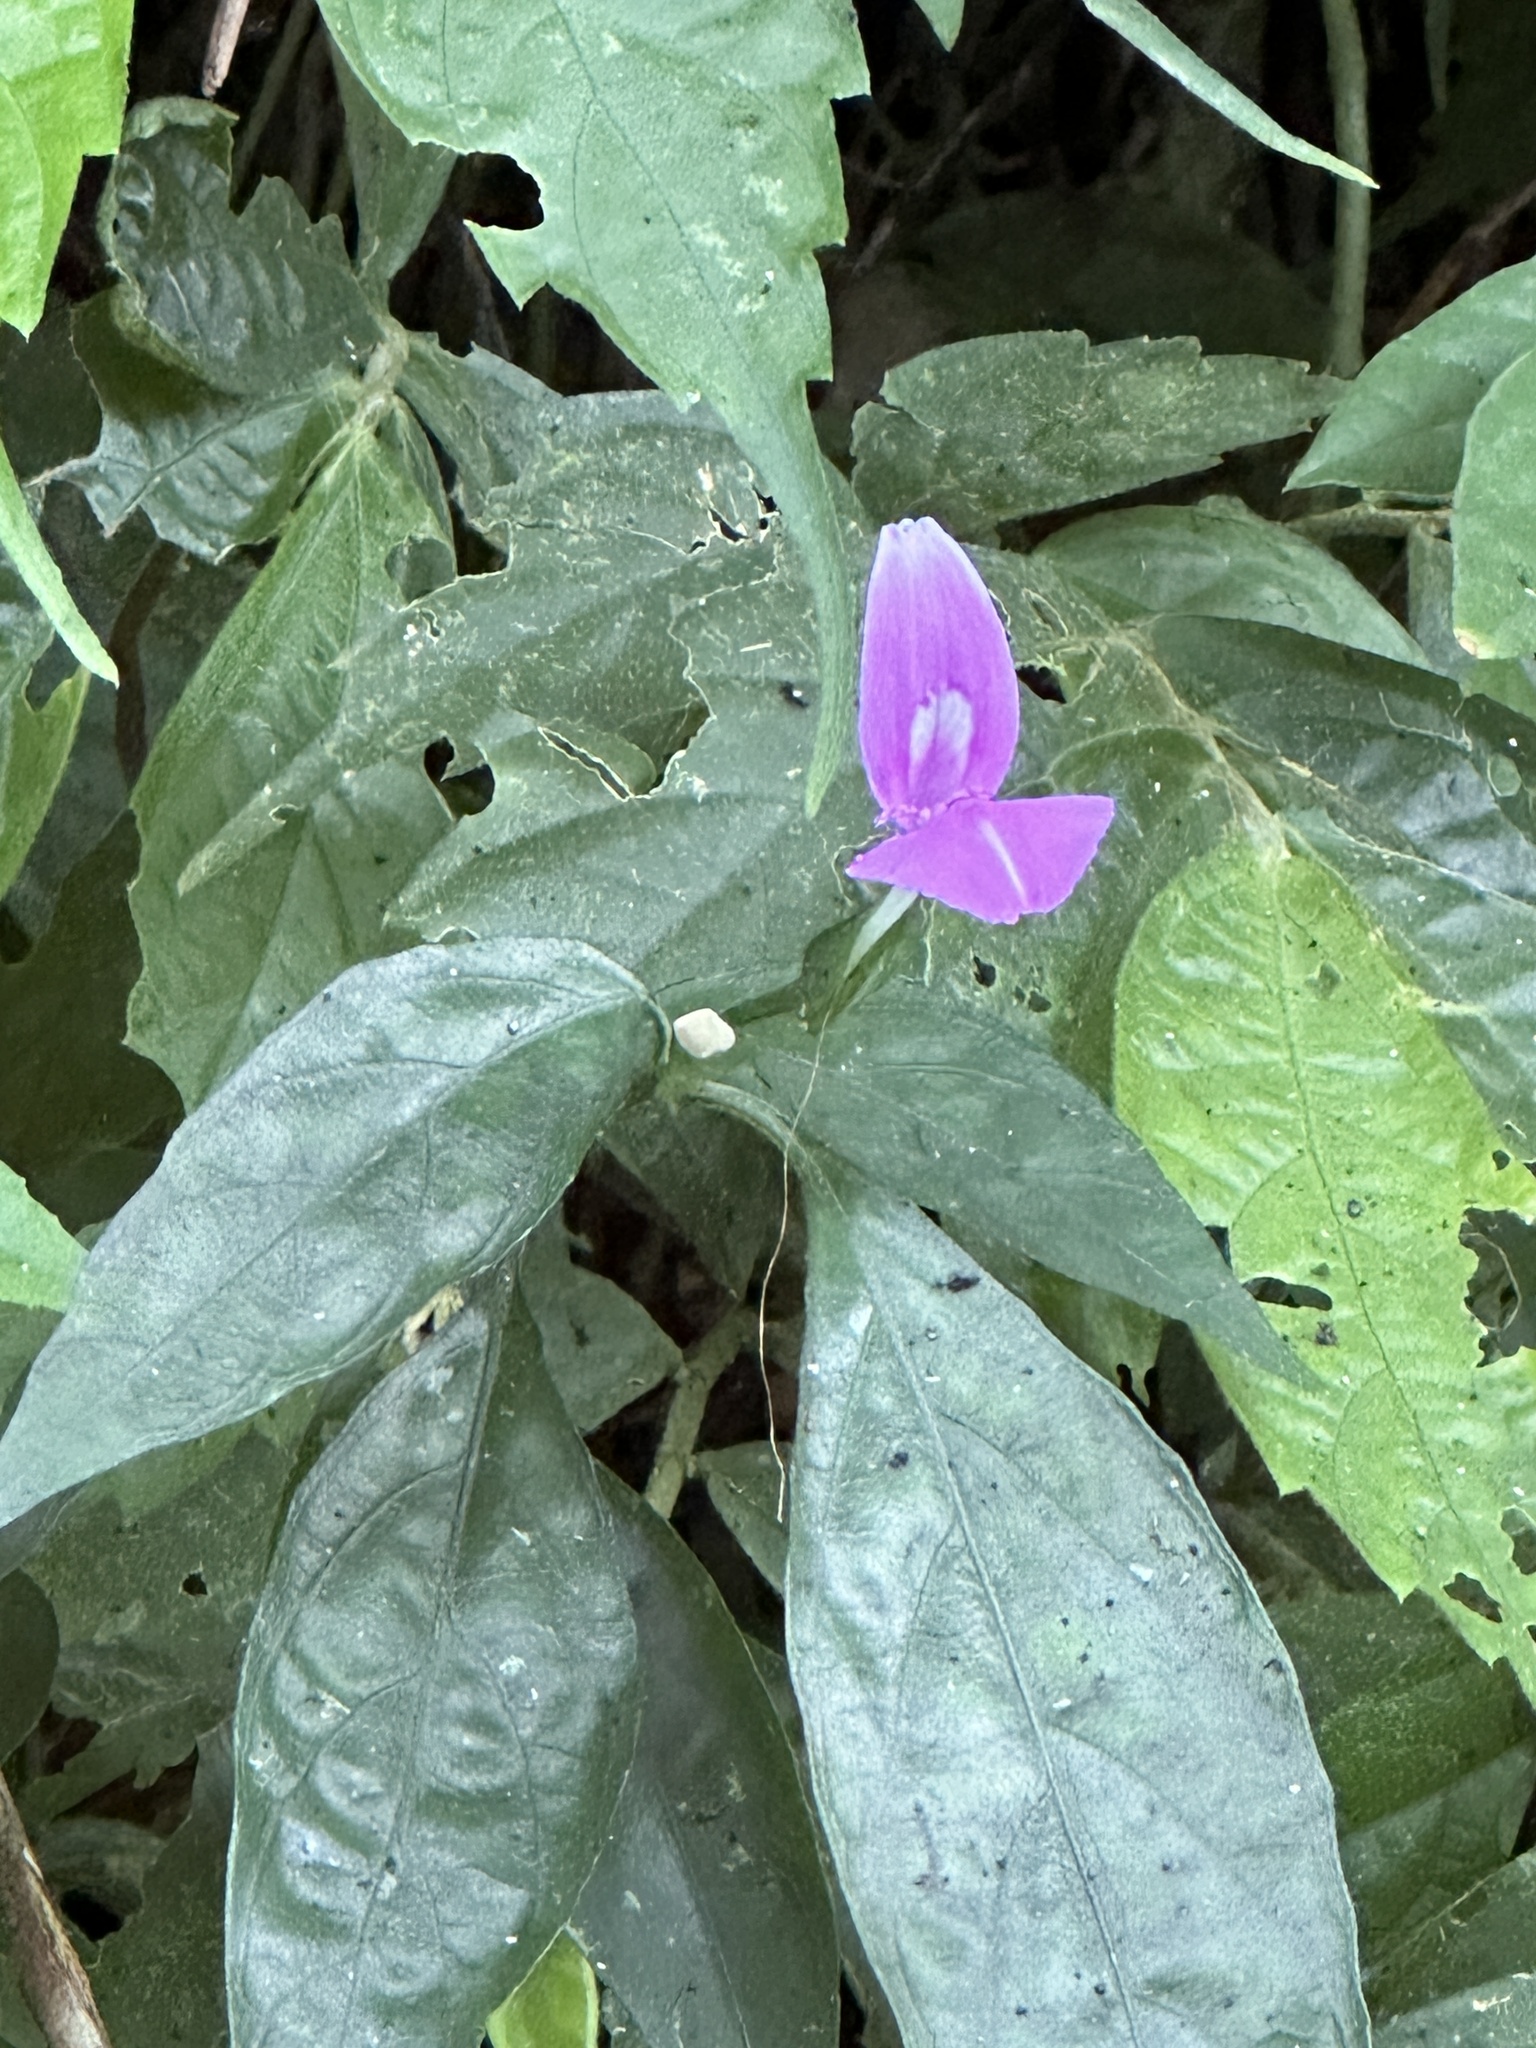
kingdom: Plantae
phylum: Tracheophyta
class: Magnoliopsida
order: Lamiales
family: Acanthaceae
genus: Dicliptera
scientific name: Dicliptera japonica
